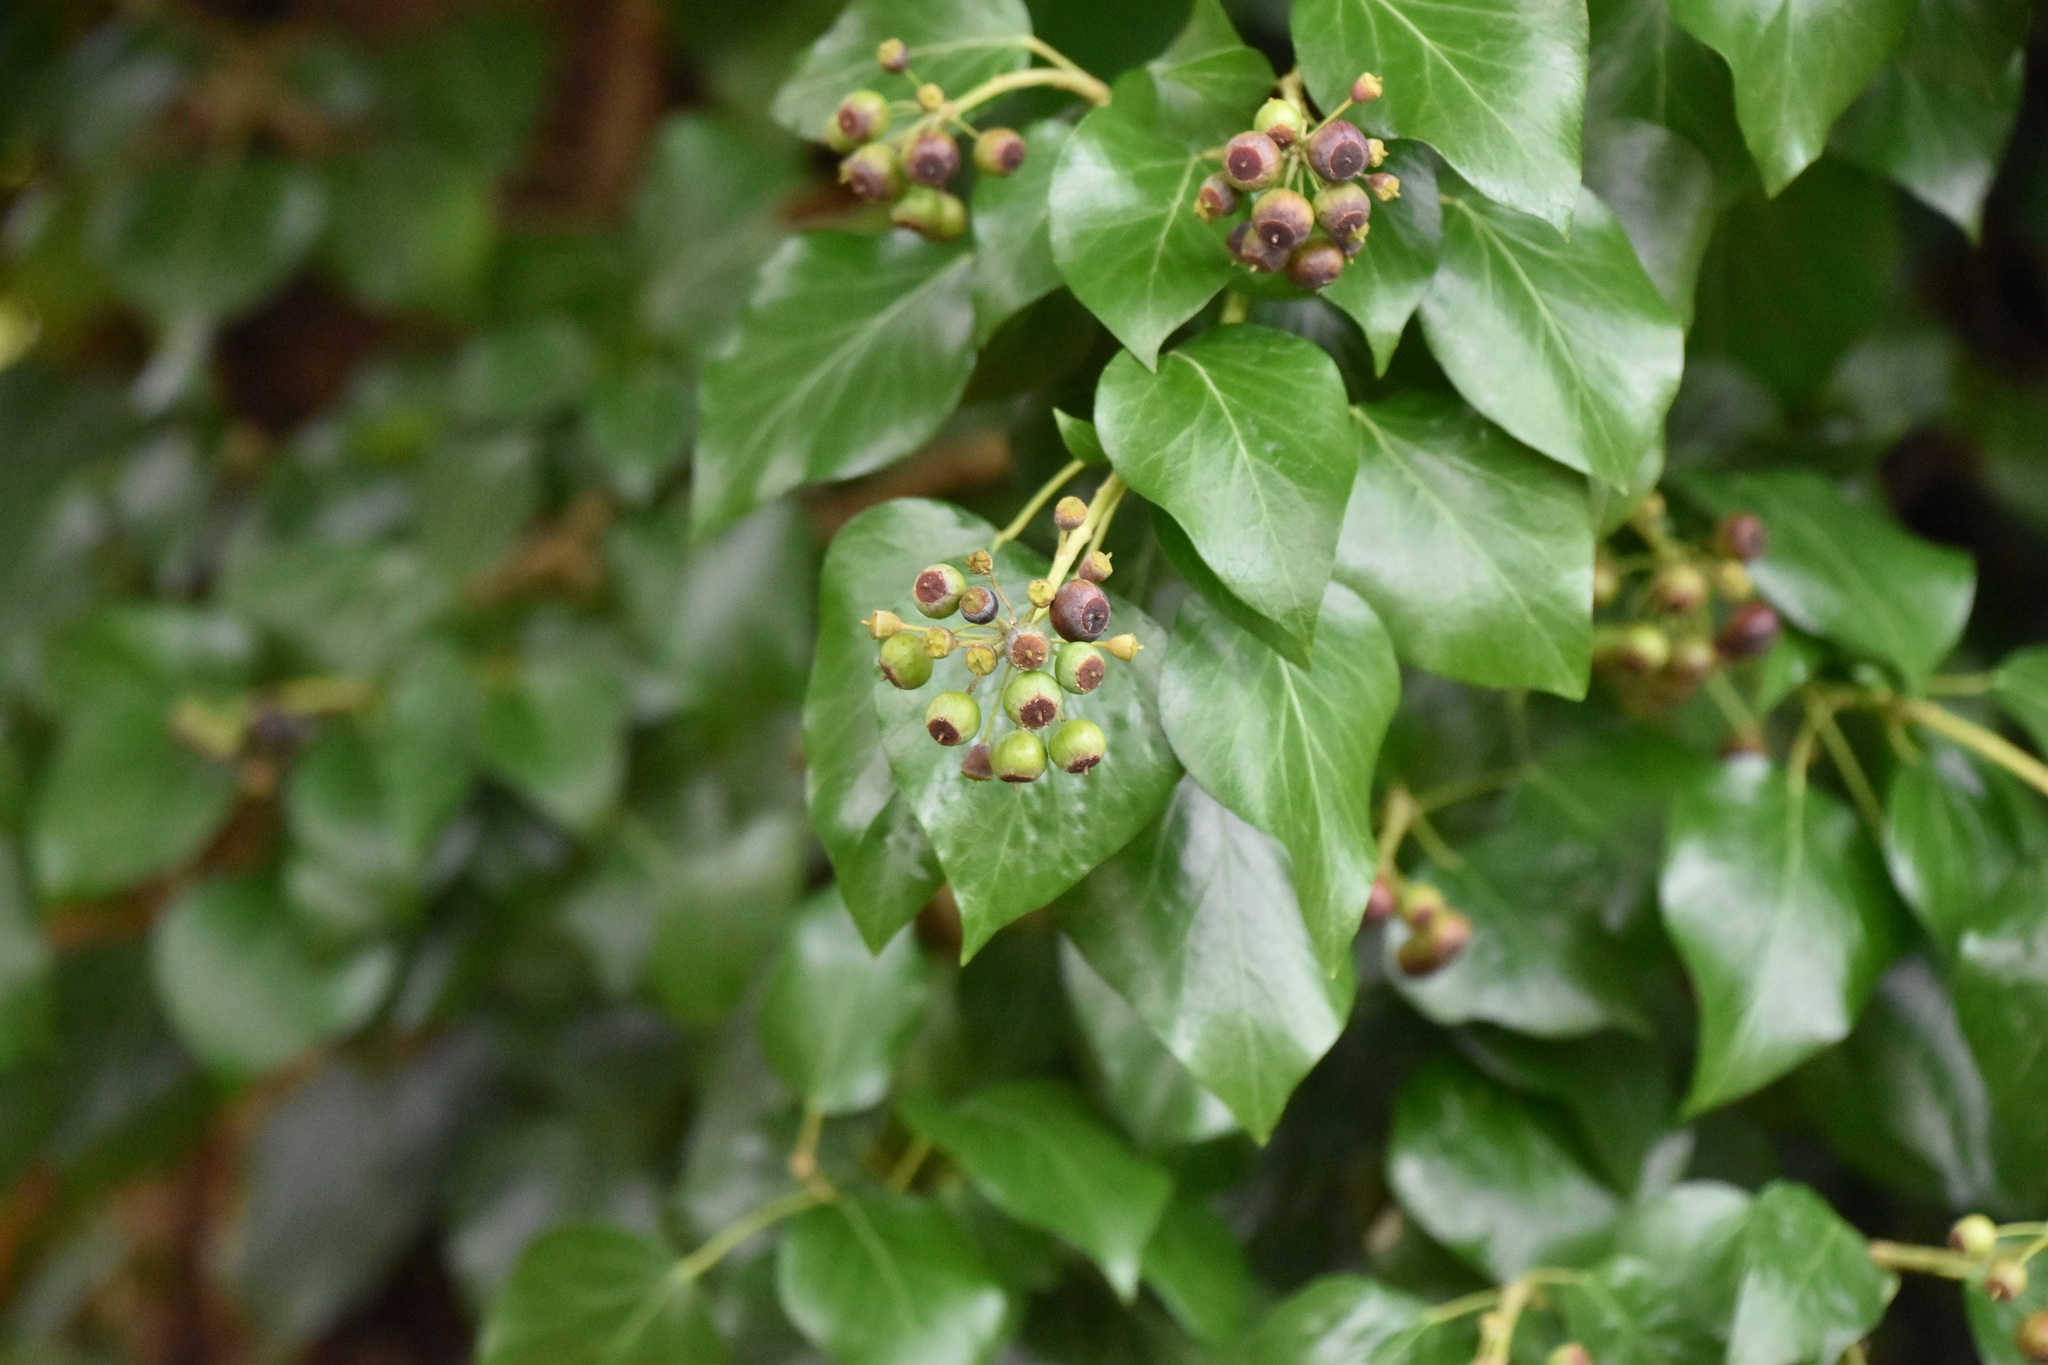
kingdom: Plantae
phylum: Tracheophyta
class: Magnoliopsida
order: Apiales
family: Araliaceae
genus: Hedera
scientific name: Hedera helix
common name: Ivy
